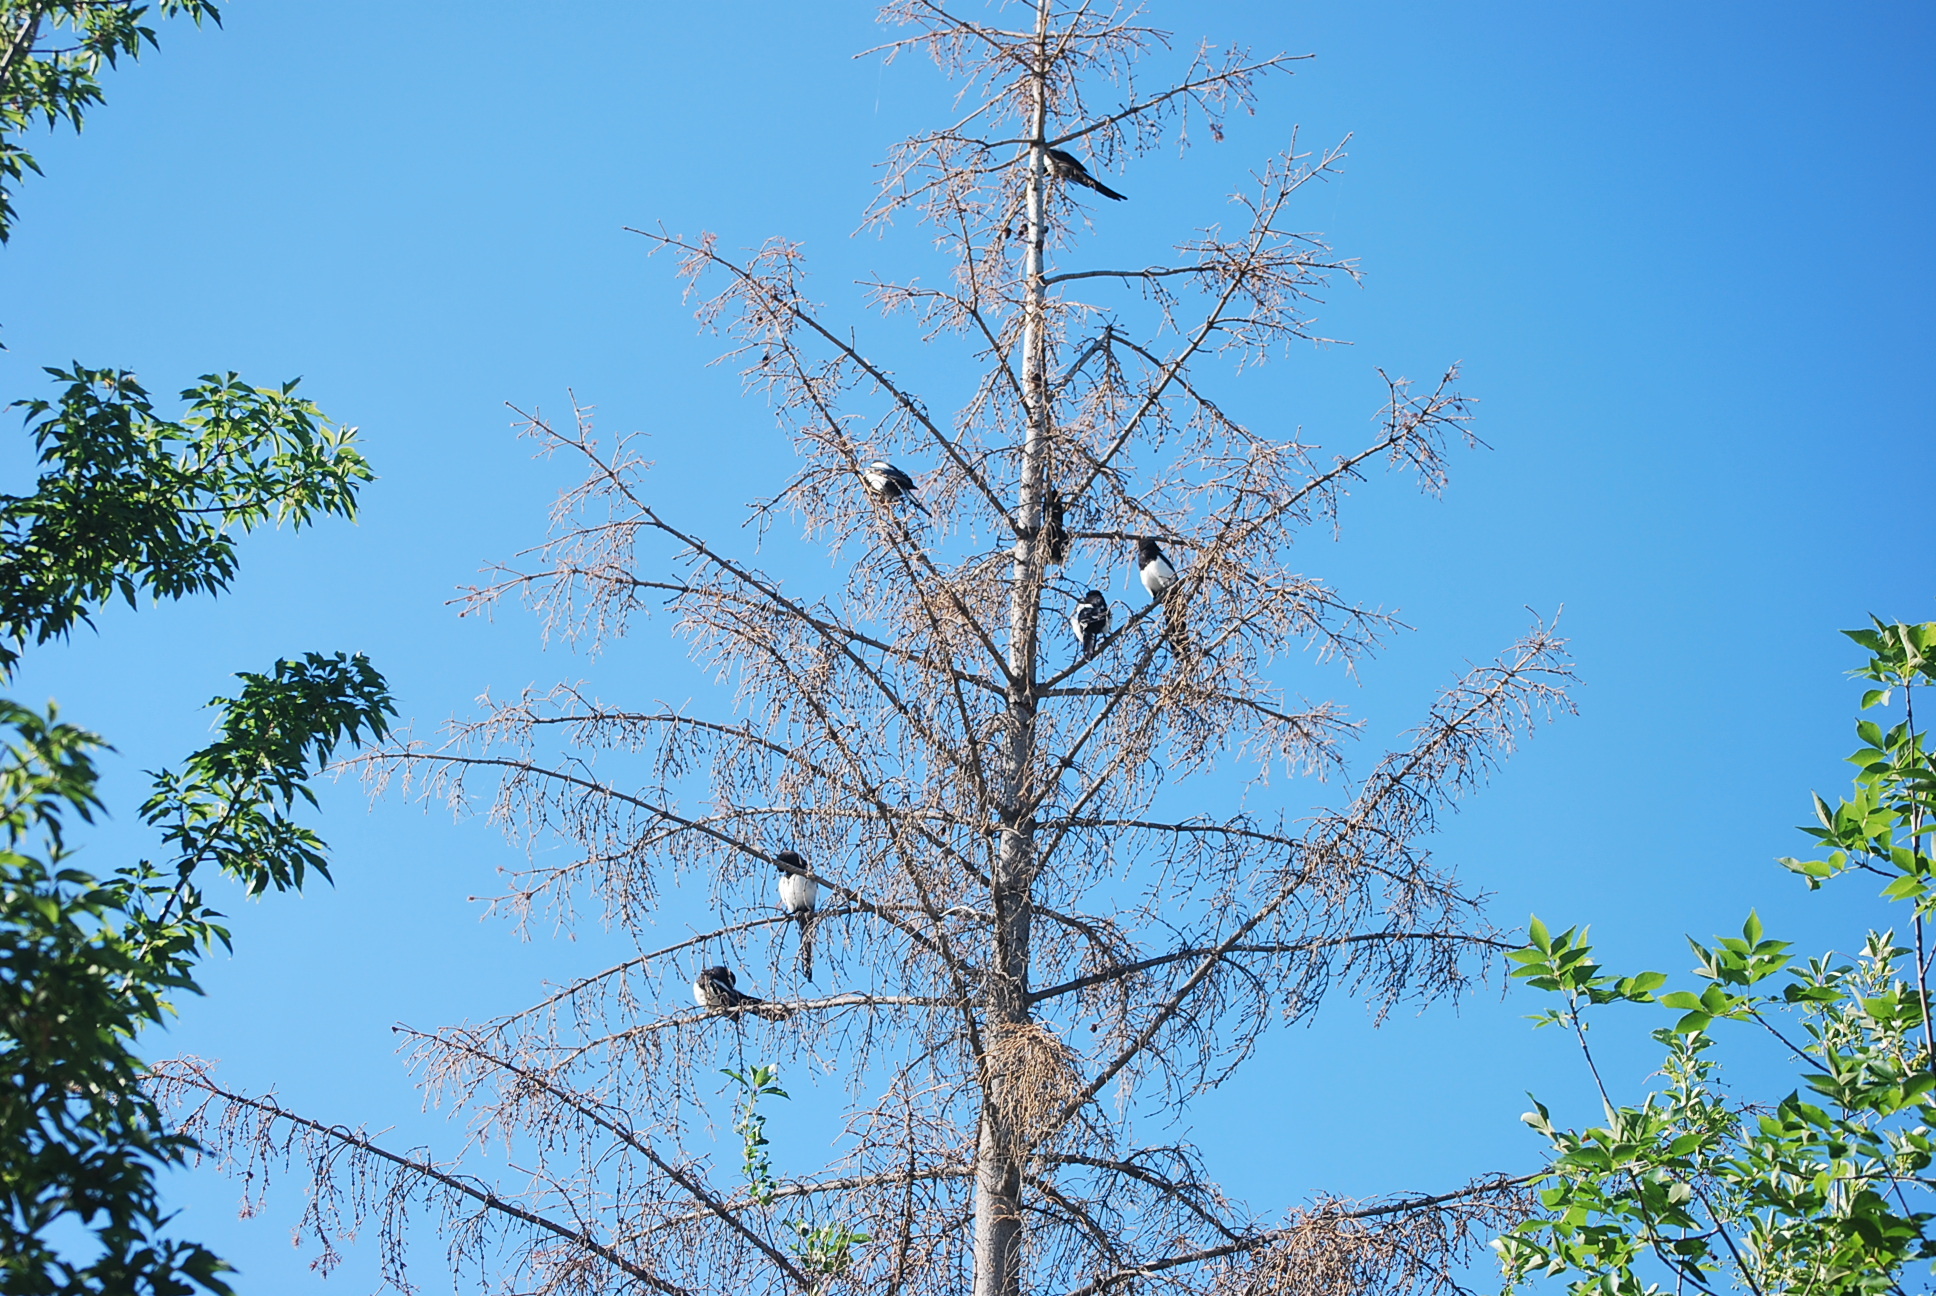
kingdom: Animalia
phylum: Chordata
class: Aves
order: Passeriformes
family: Corvidae
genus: Pica
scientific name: Pica hudsonia
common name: Black-billed magpie
